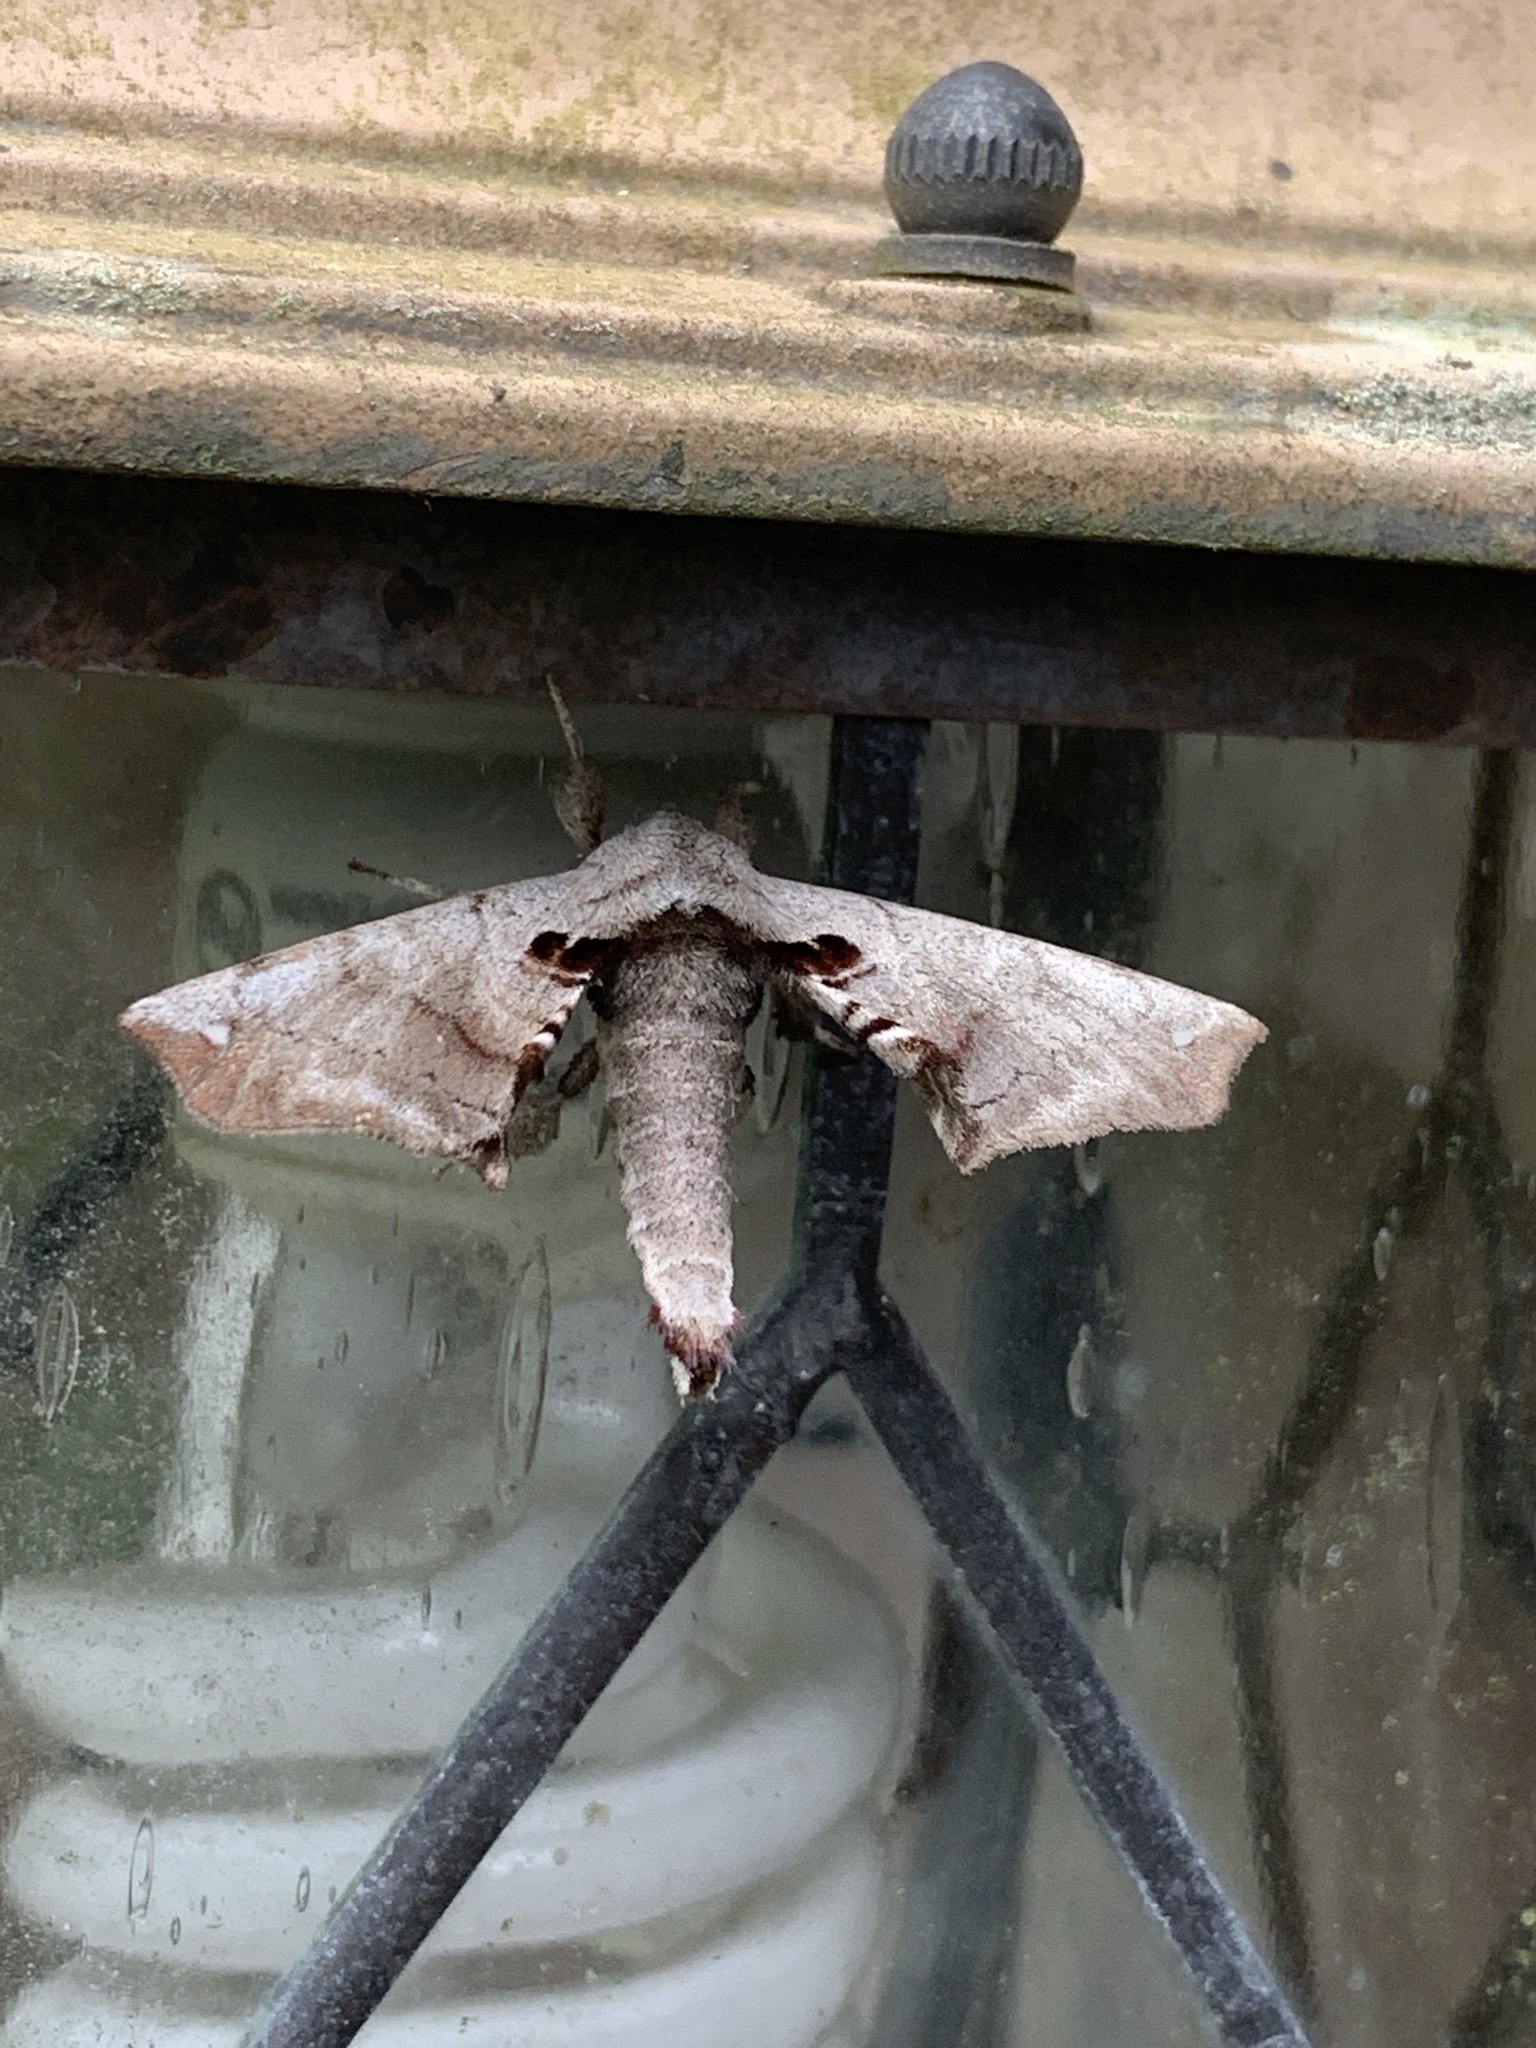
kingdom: Animalia
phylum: Arthropoda
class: Insecta
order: Lepidoptera
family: Apatelodidae
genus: Hygrochroa
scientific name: Hygrochroa Apatelodes torrefacta
